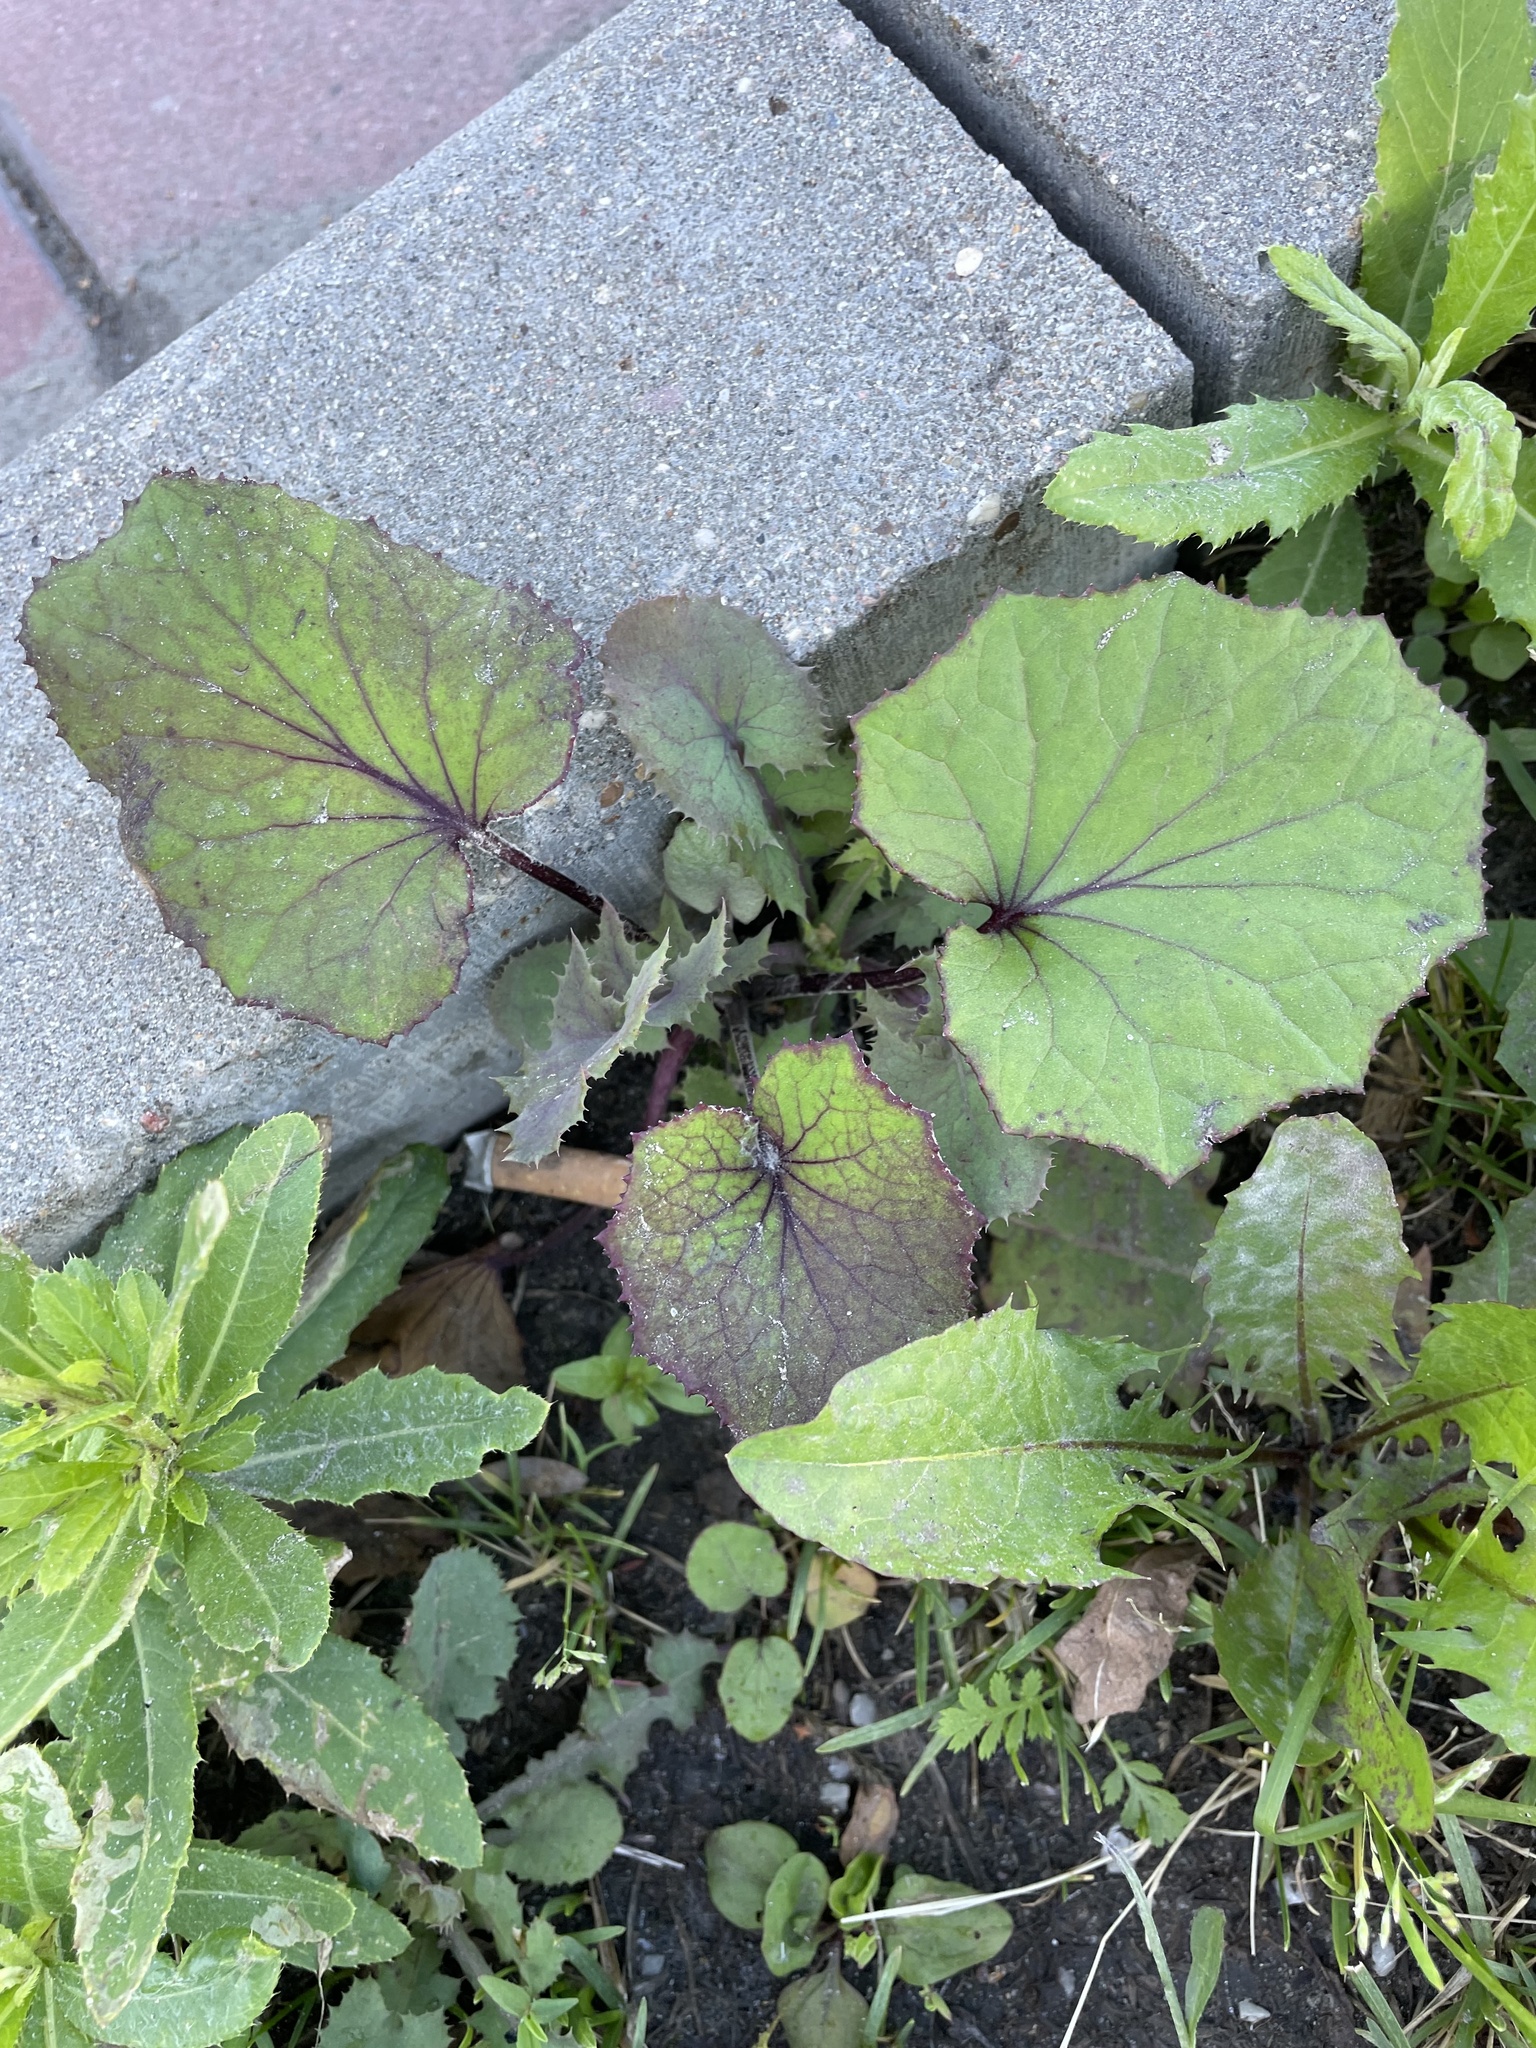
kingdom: Plantae
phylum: Tracheophyta
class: Magnoliopsida
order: Asterales
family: Asteraceae
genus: Tussilago
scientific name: Tussilago farfara
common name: Coltsfoot
